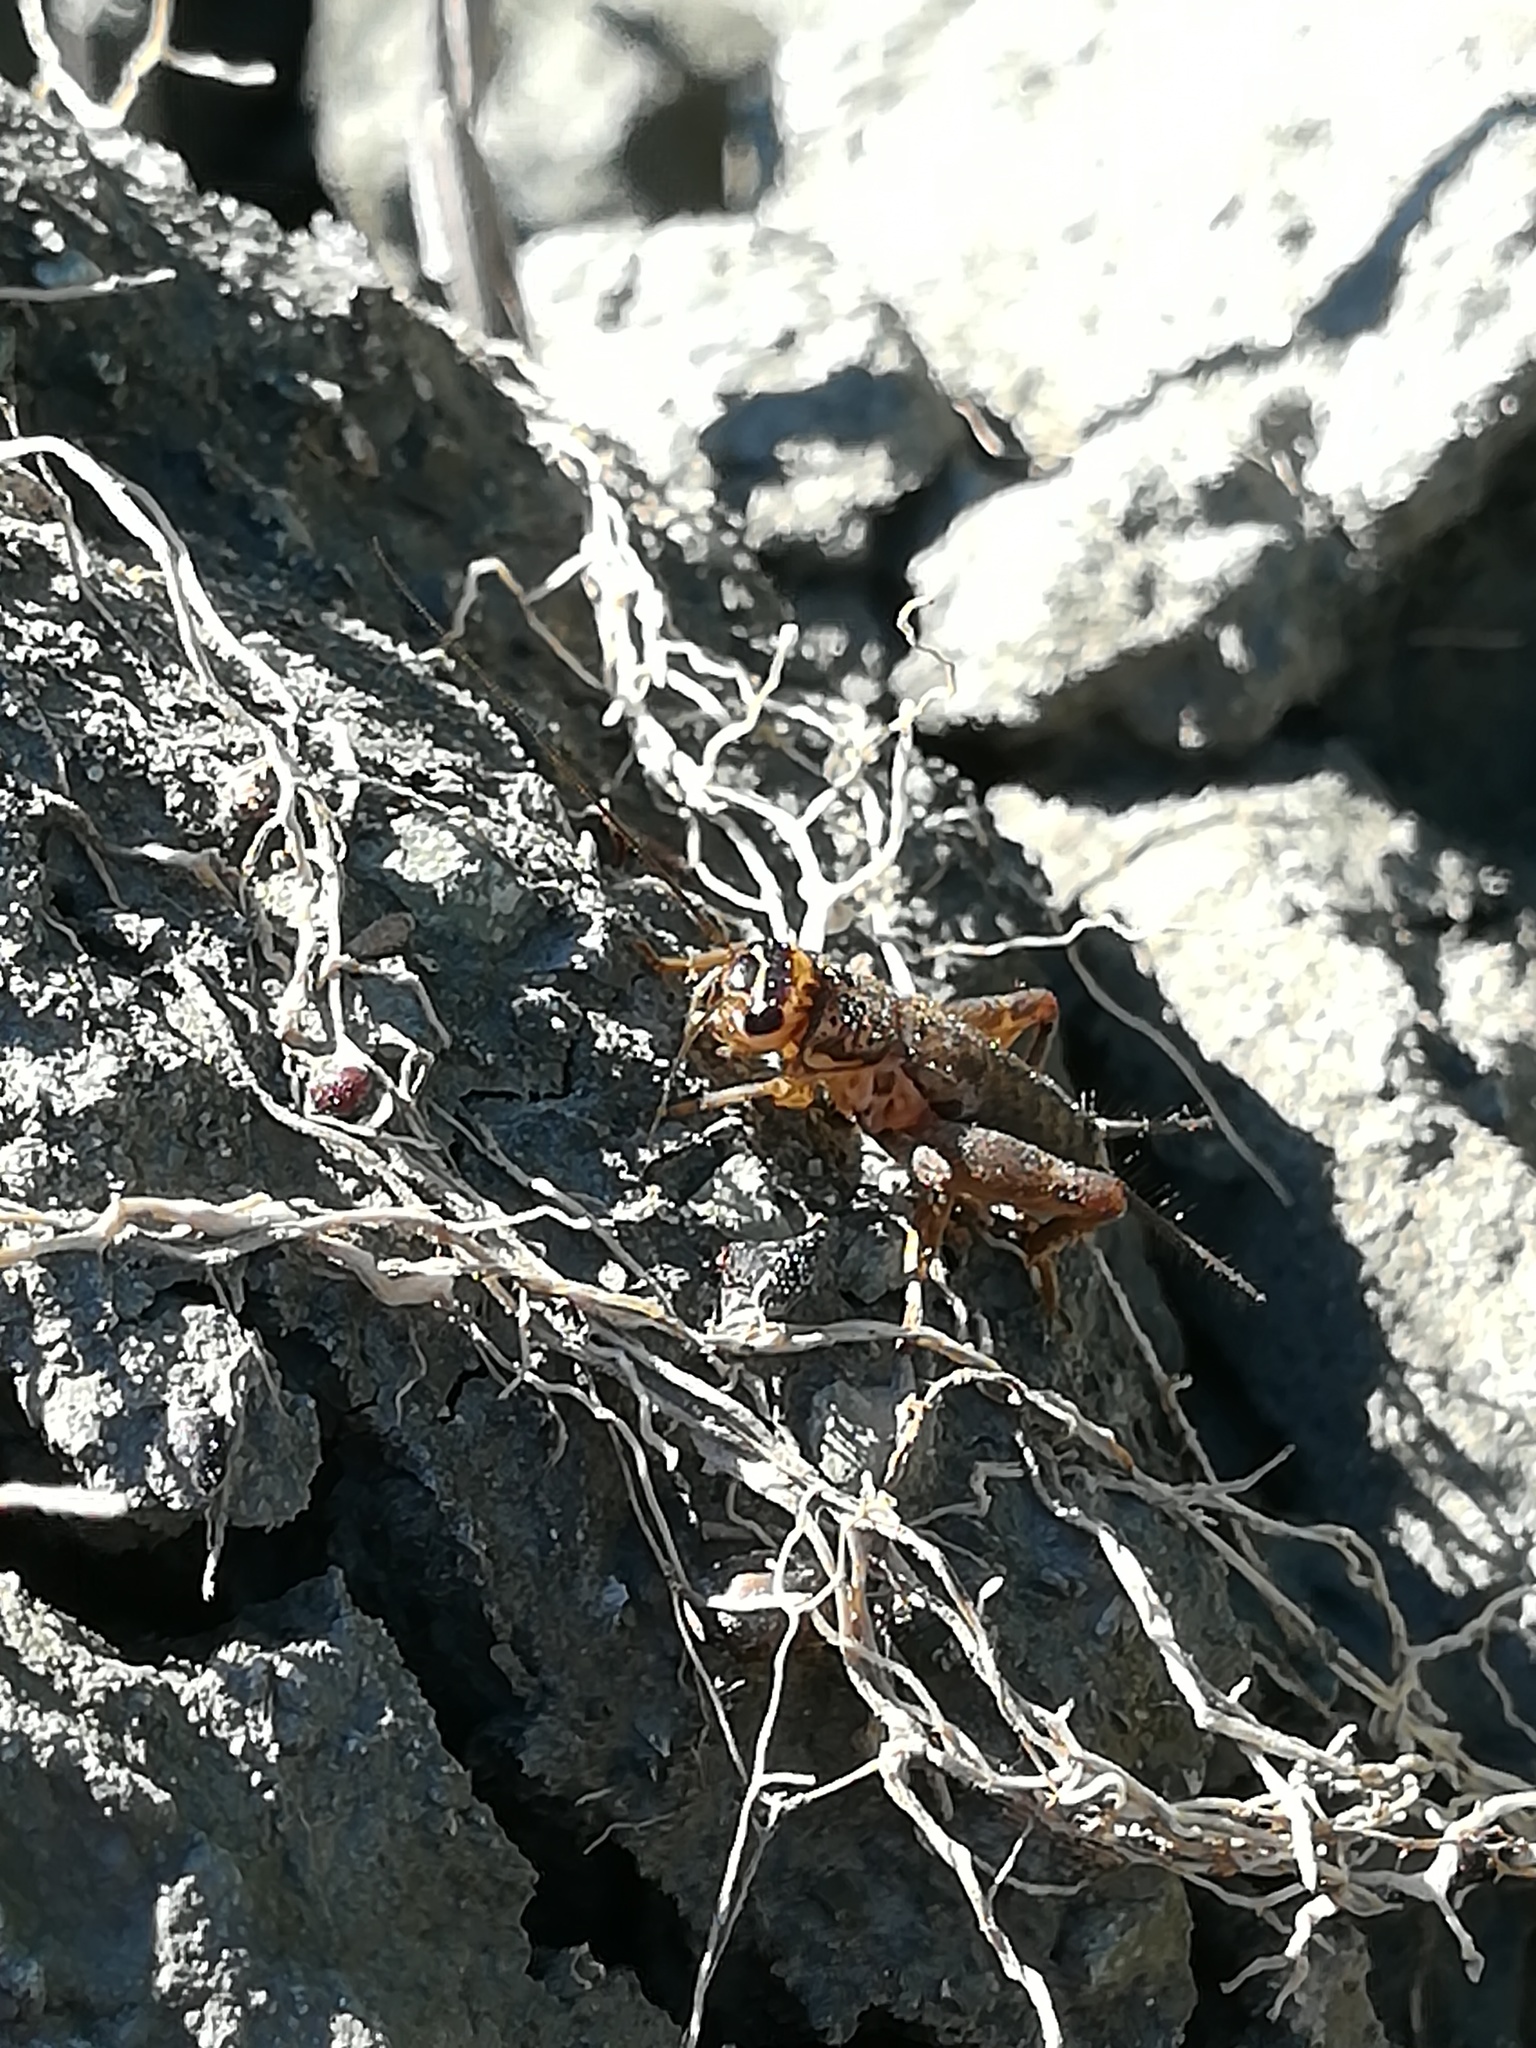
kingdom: Animalia
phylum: Arthropoda
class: Insecta
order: Orthoptera
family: Gryllidae
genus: Eumodicogryllus
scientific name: Eumodicogryllus bordigalensis
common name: Bordeaux cricket
